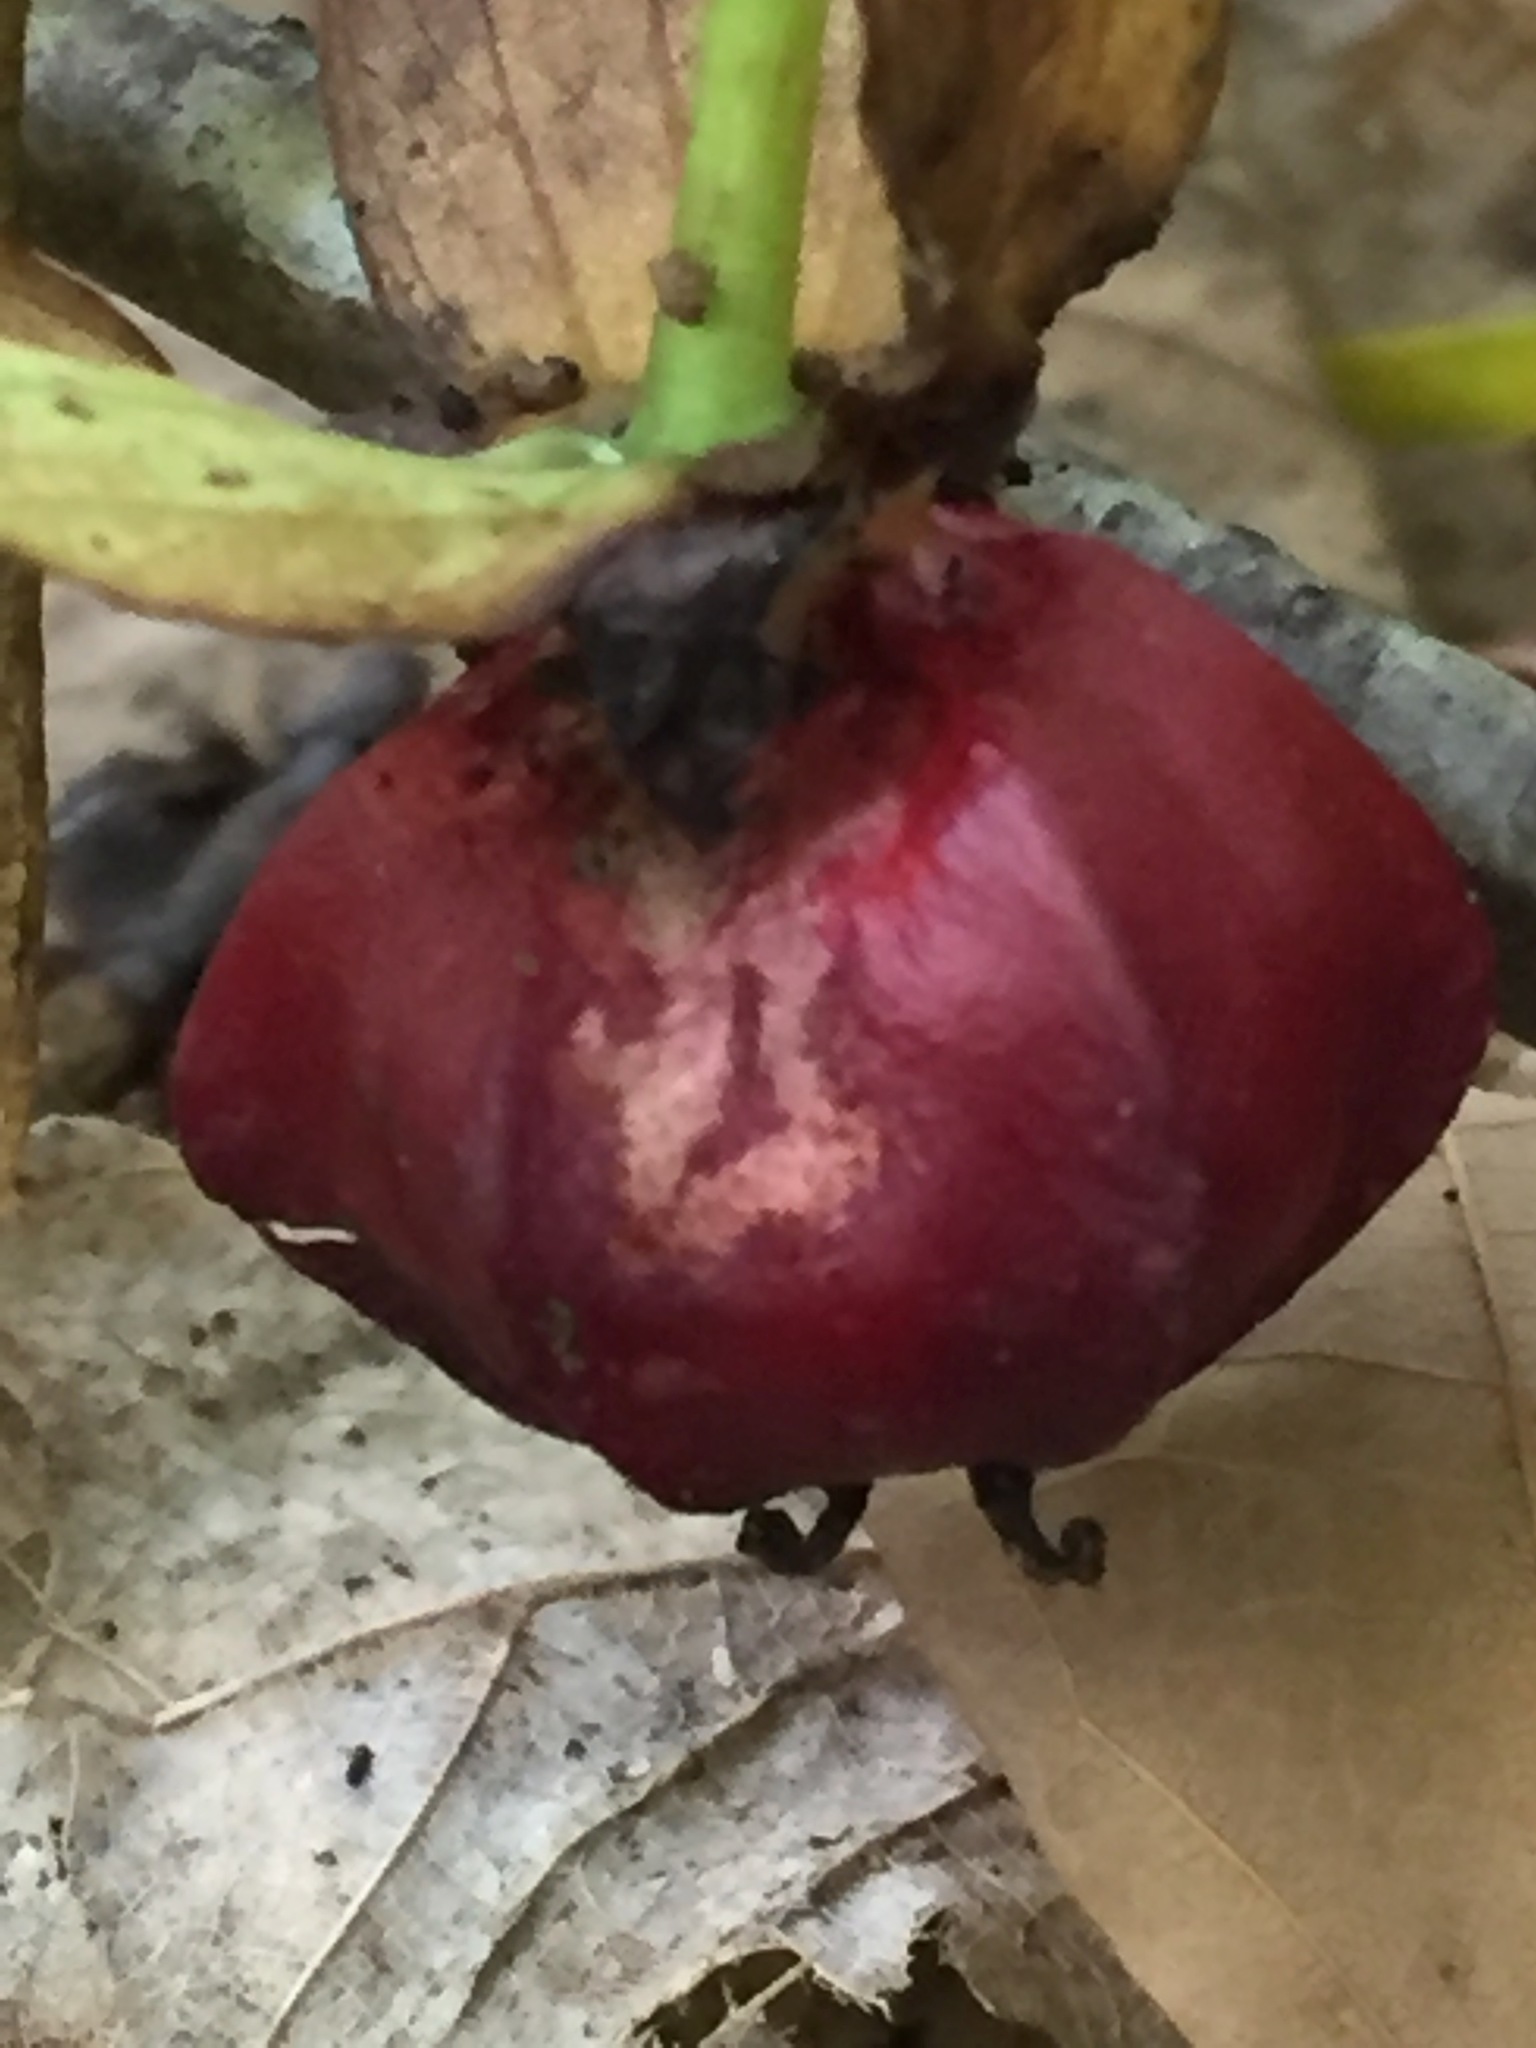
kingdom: Plantae
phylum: Tracheophyta
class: Liliopsida
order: Liliales
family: Melanthiaceae
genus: Trillium
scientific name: Trillium erectum
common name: Purple trillium
